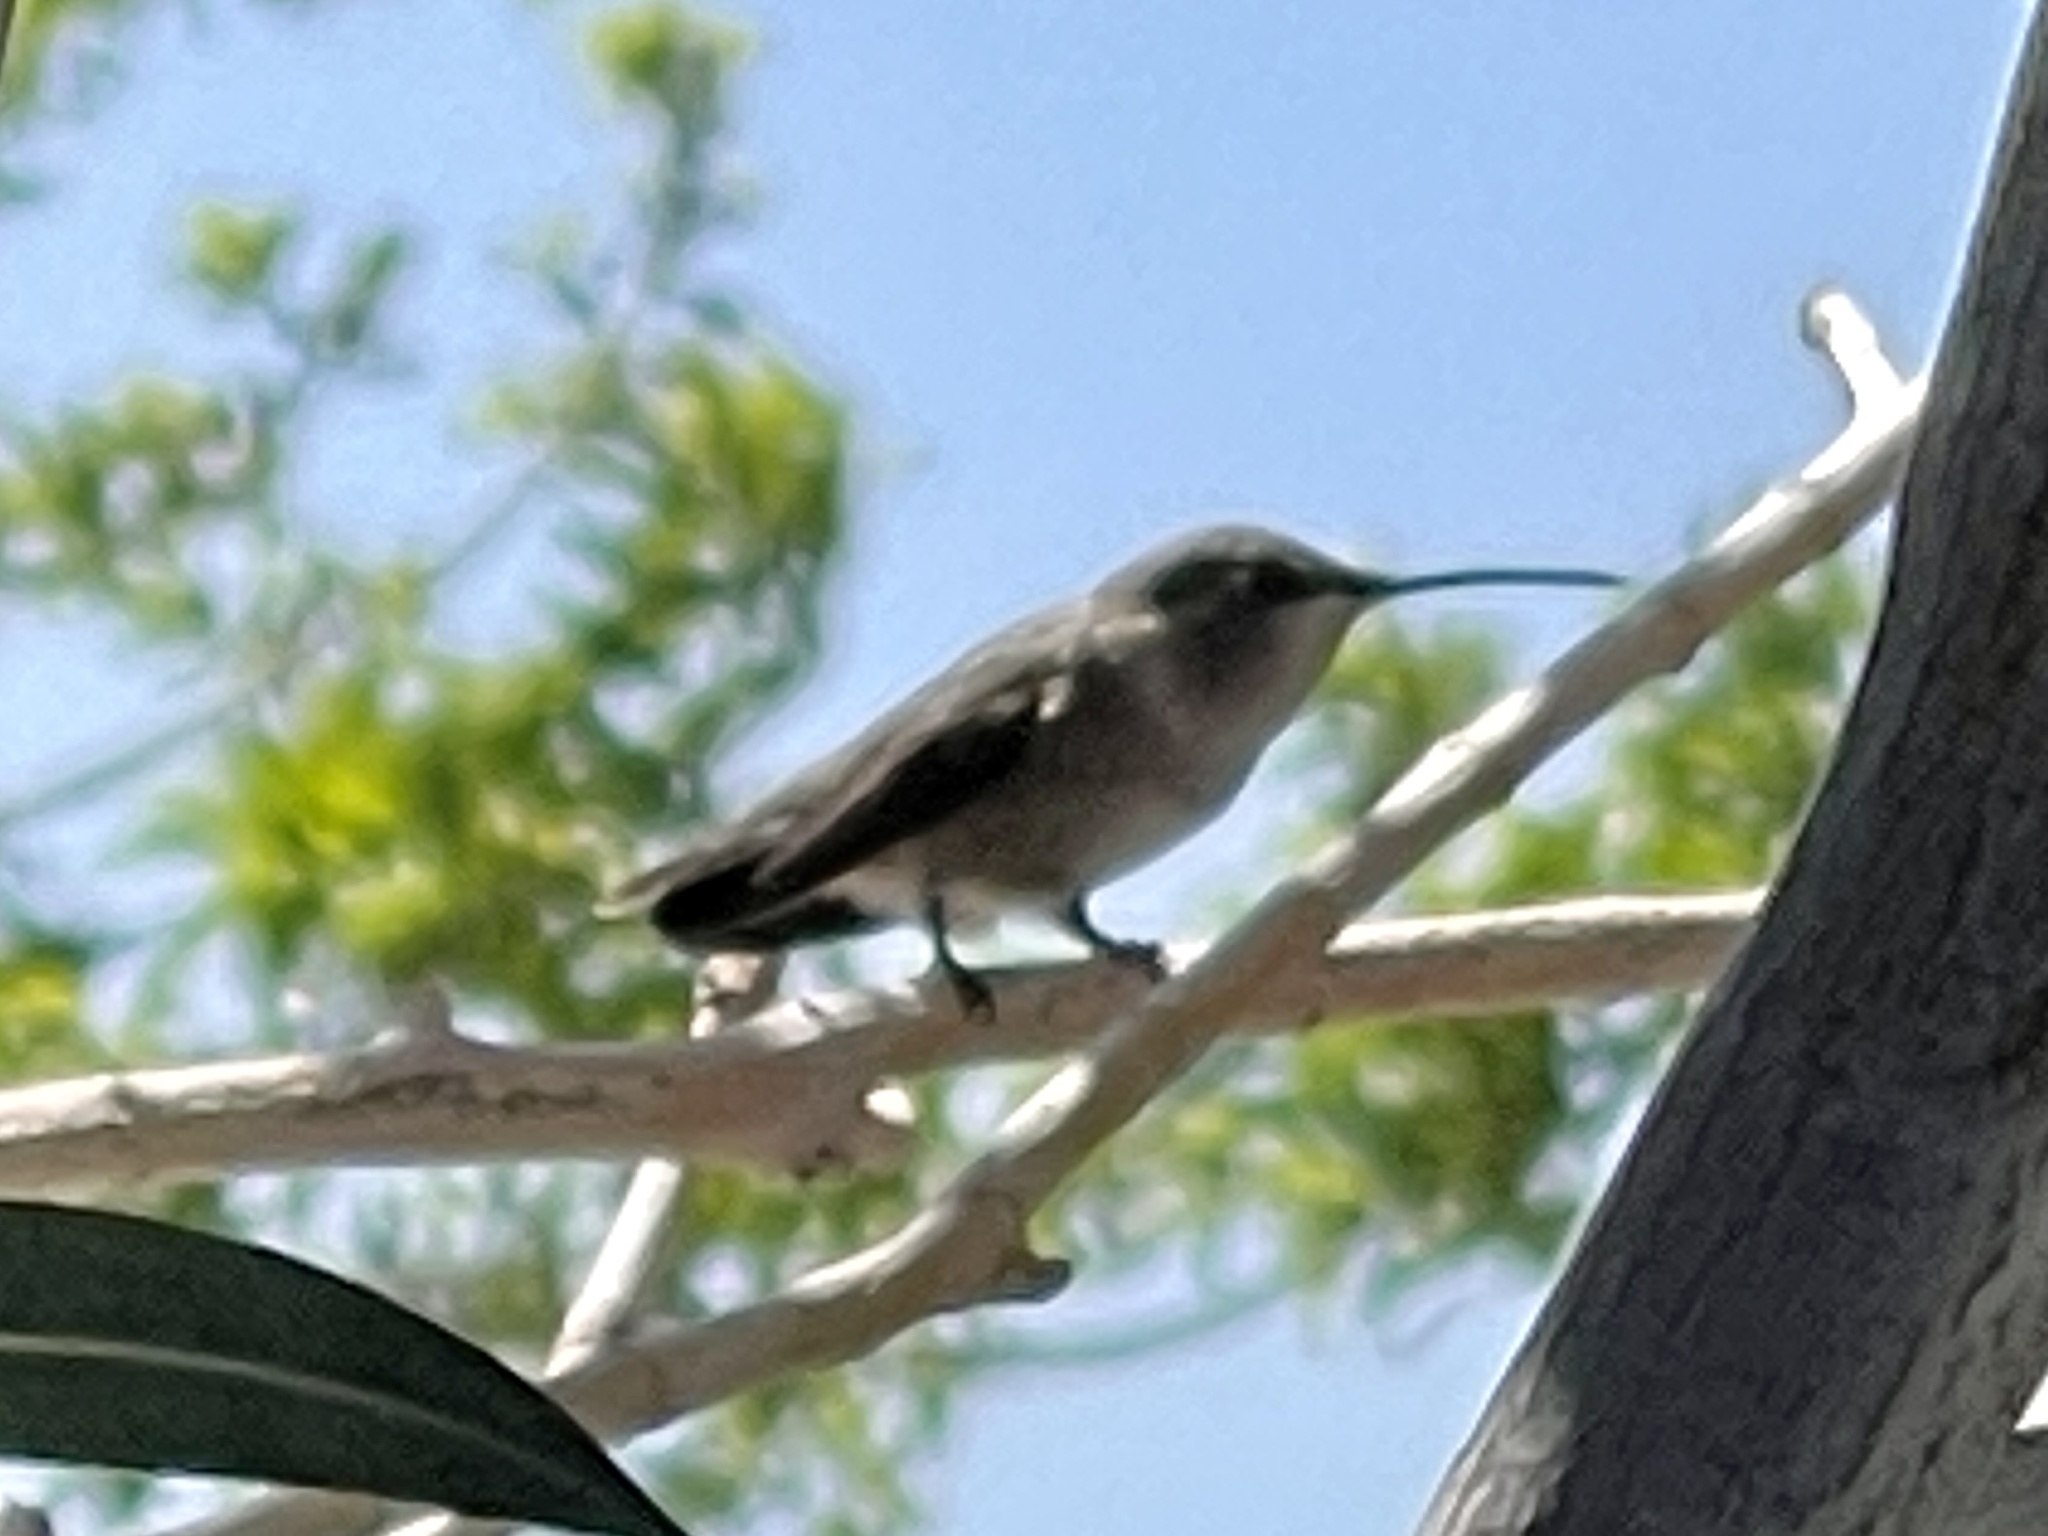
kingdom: Animalia
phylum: Chordata
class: Aves
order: Apodiformes
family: Trochilidae
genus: Calypte
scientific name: Calypte costae
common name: Costa's hummingbird
